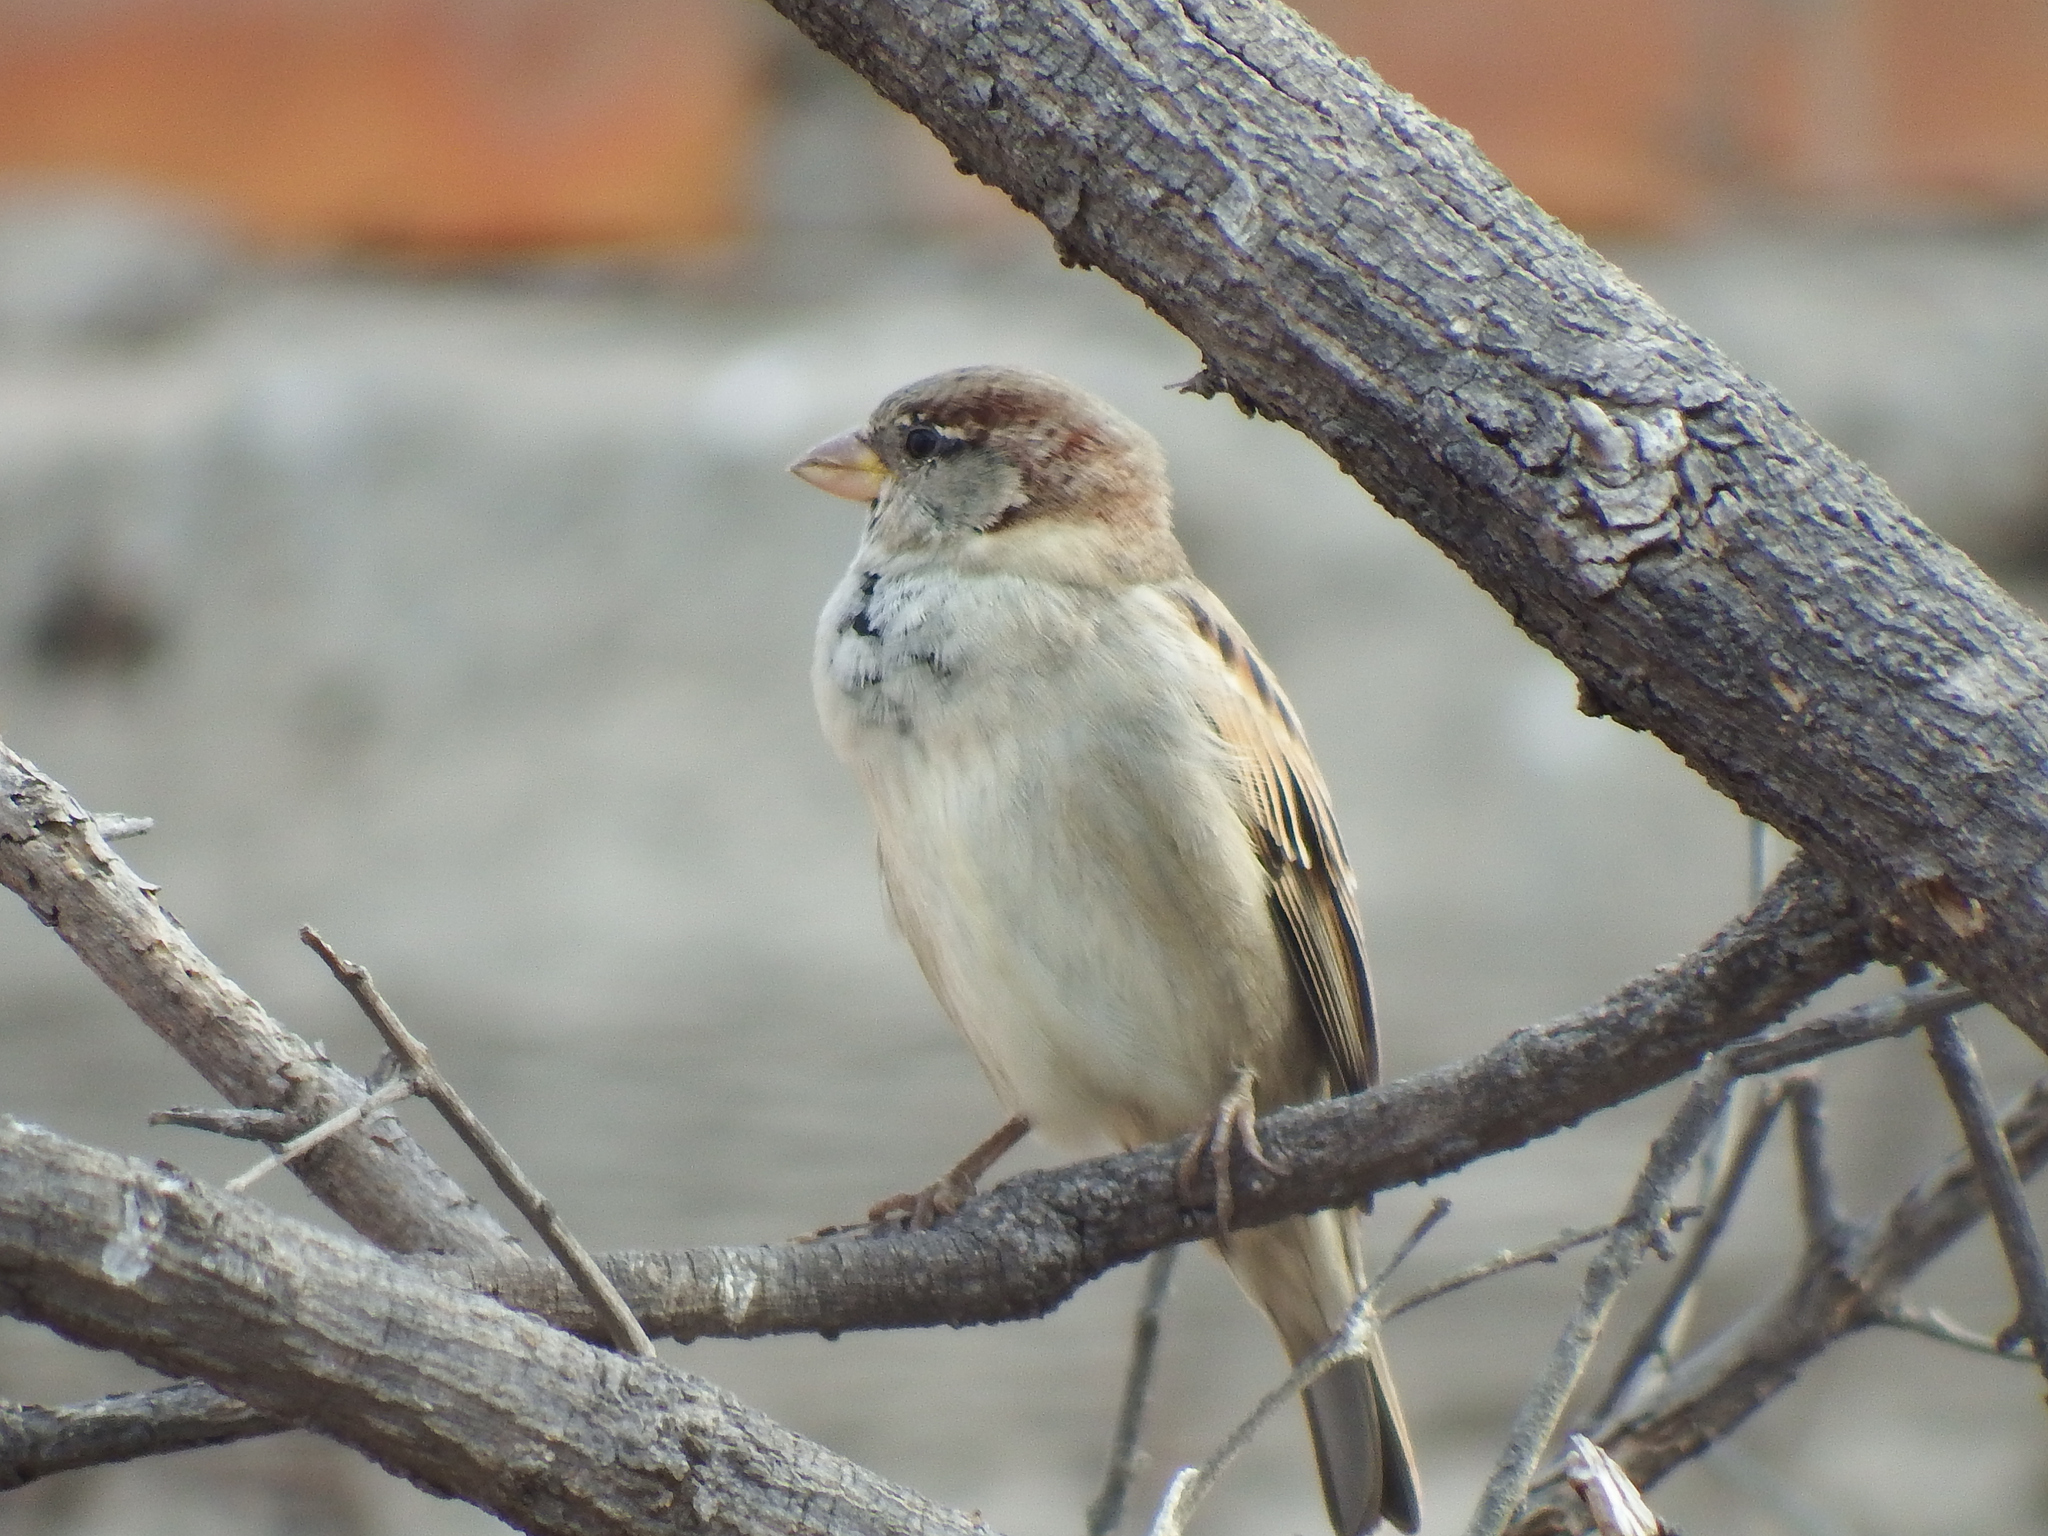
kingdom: Animalia
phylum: Chordata
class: Aves
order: Passeriformes
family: Passeridae
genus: Passer
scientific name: Passer domesticus
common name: House sparrow
